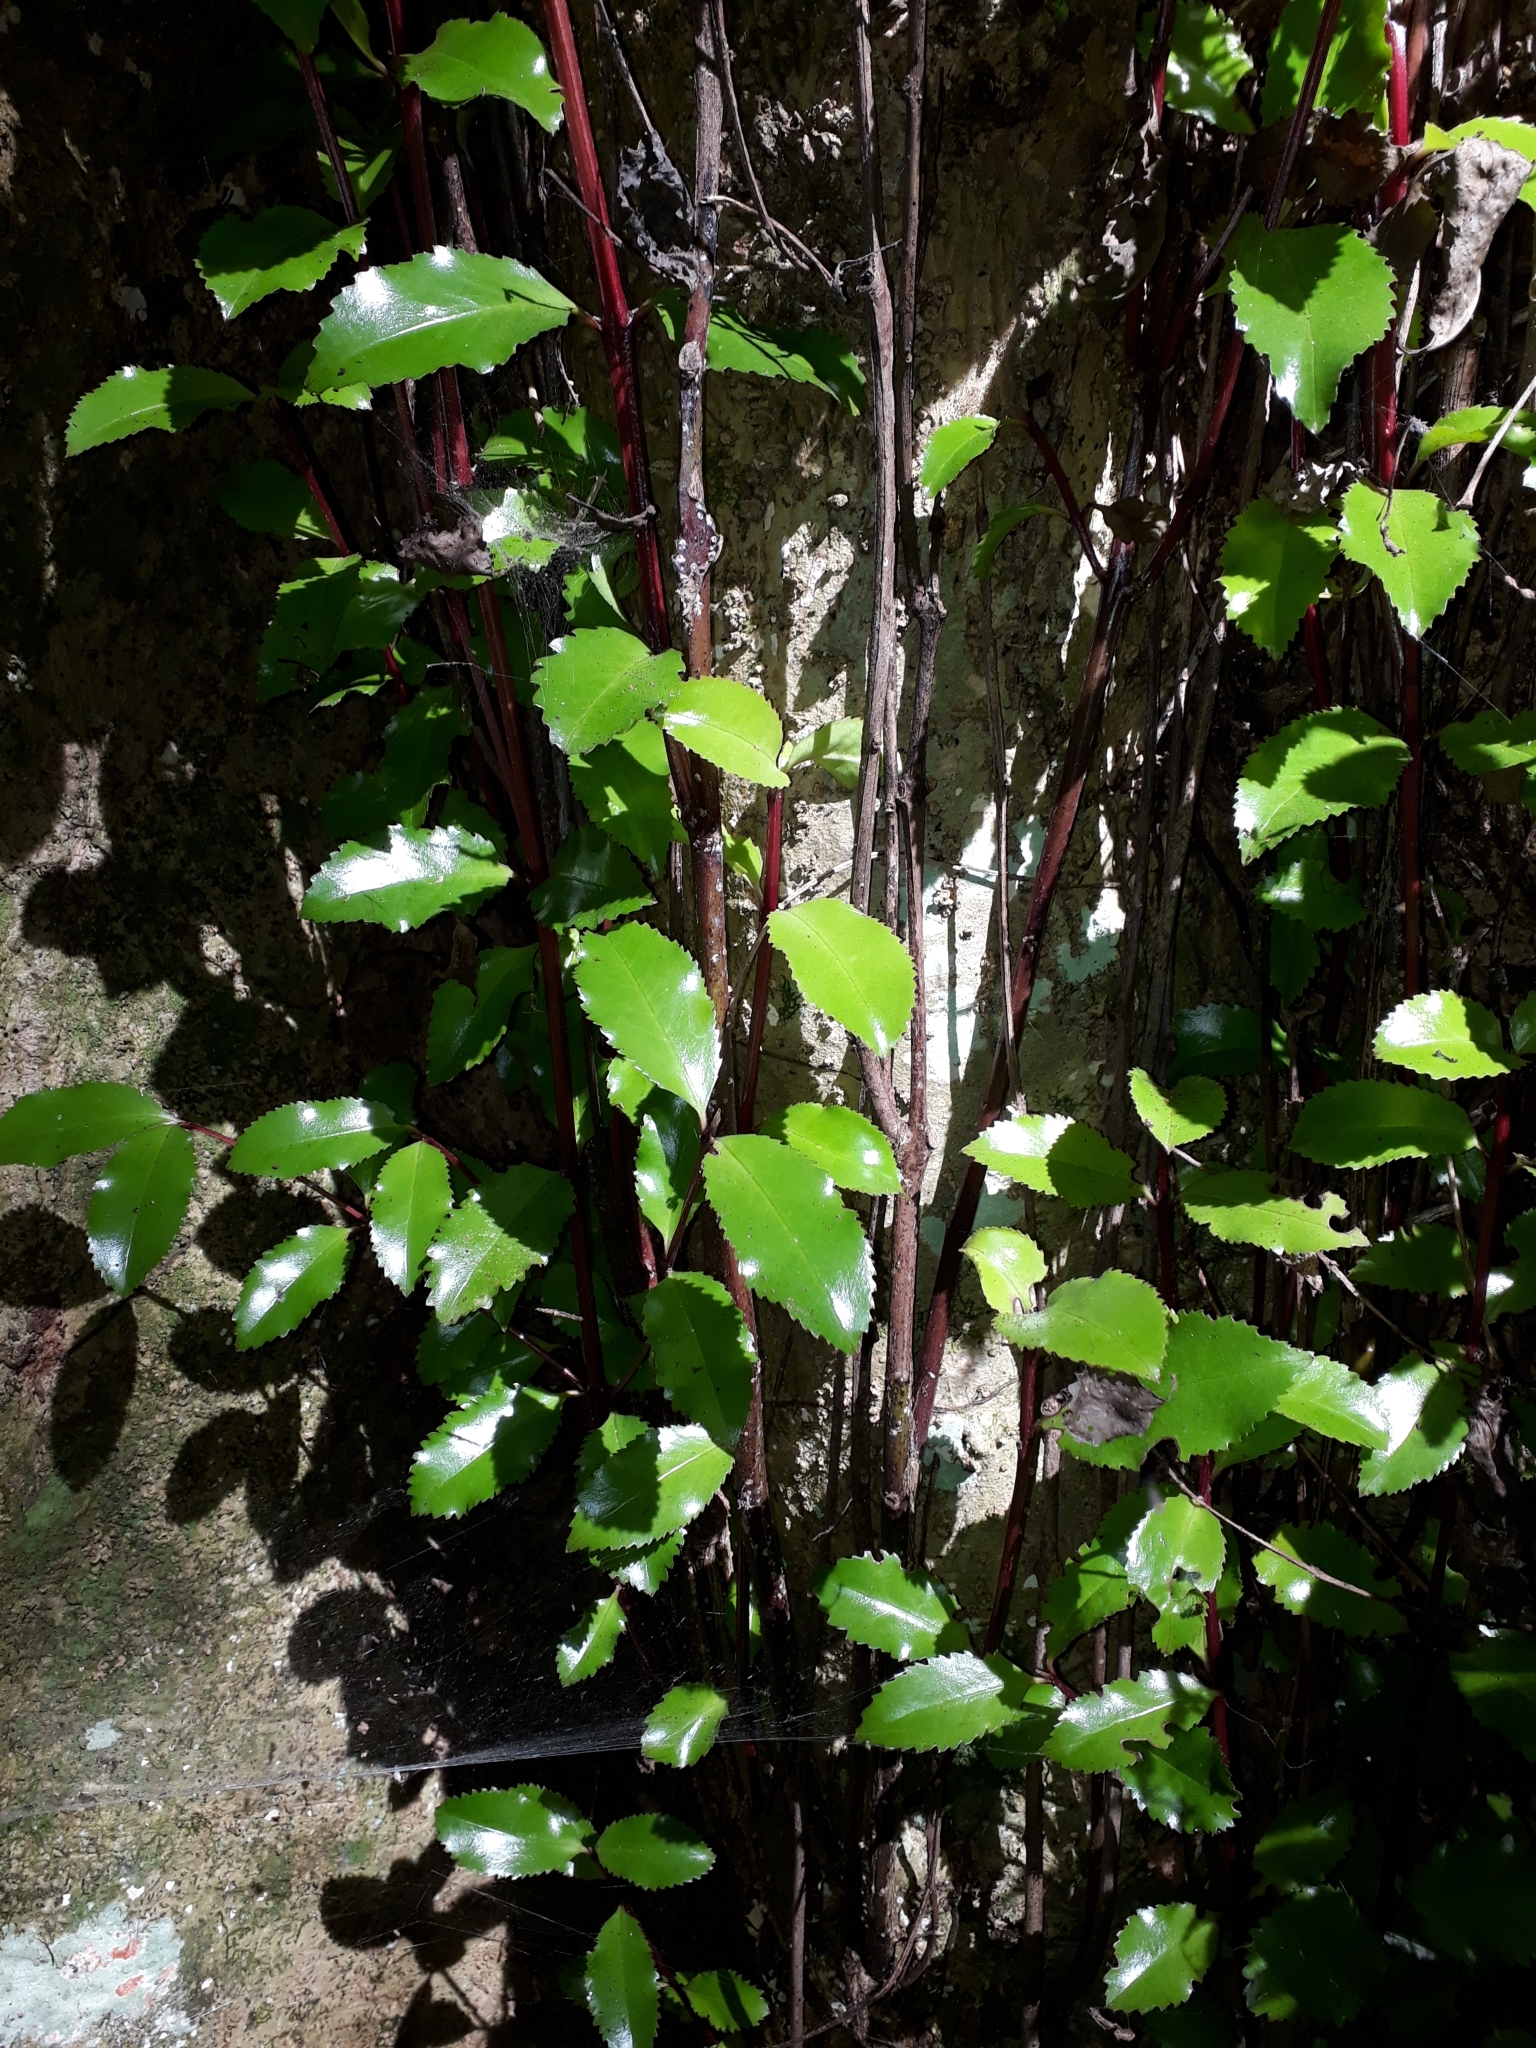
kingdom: Plantae
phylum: Tracheophyta
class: Magnoliopsida
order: Laurales
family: Atherospermataceae
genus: Laurelia
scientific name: Laurelia novae-zelandiae
